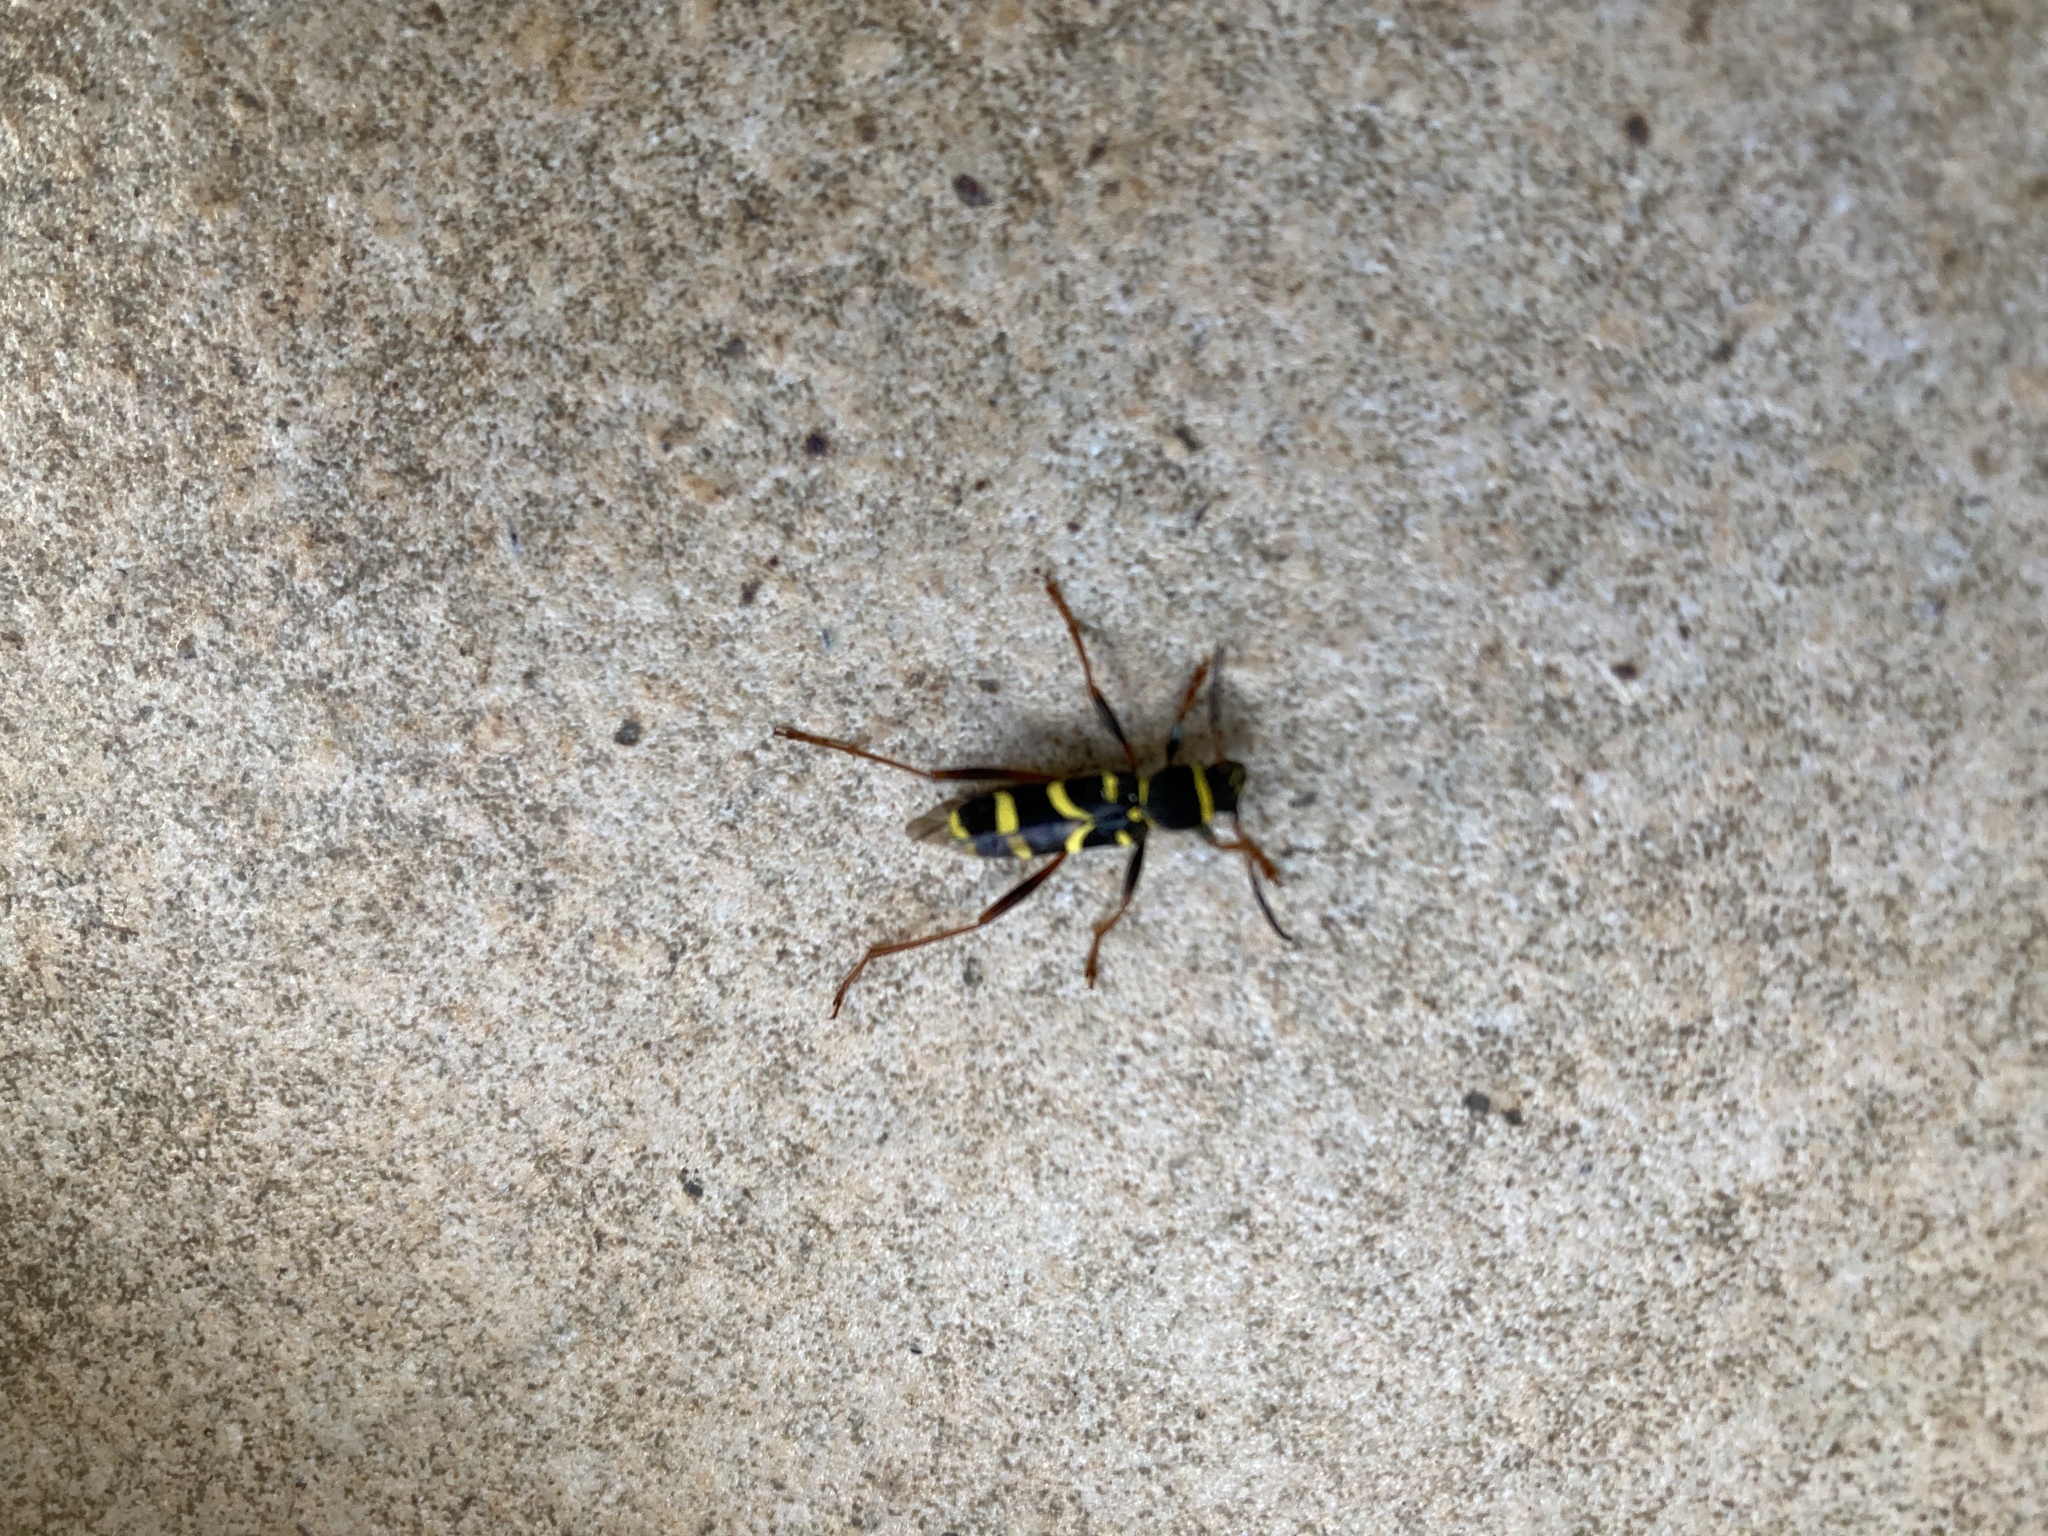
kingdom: Animalia
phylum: Arthropoda
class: Insecta
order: Coleoptera
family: Cerambycidae
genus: Clytus
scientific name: Clytus arietis
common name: Wasp beetle
